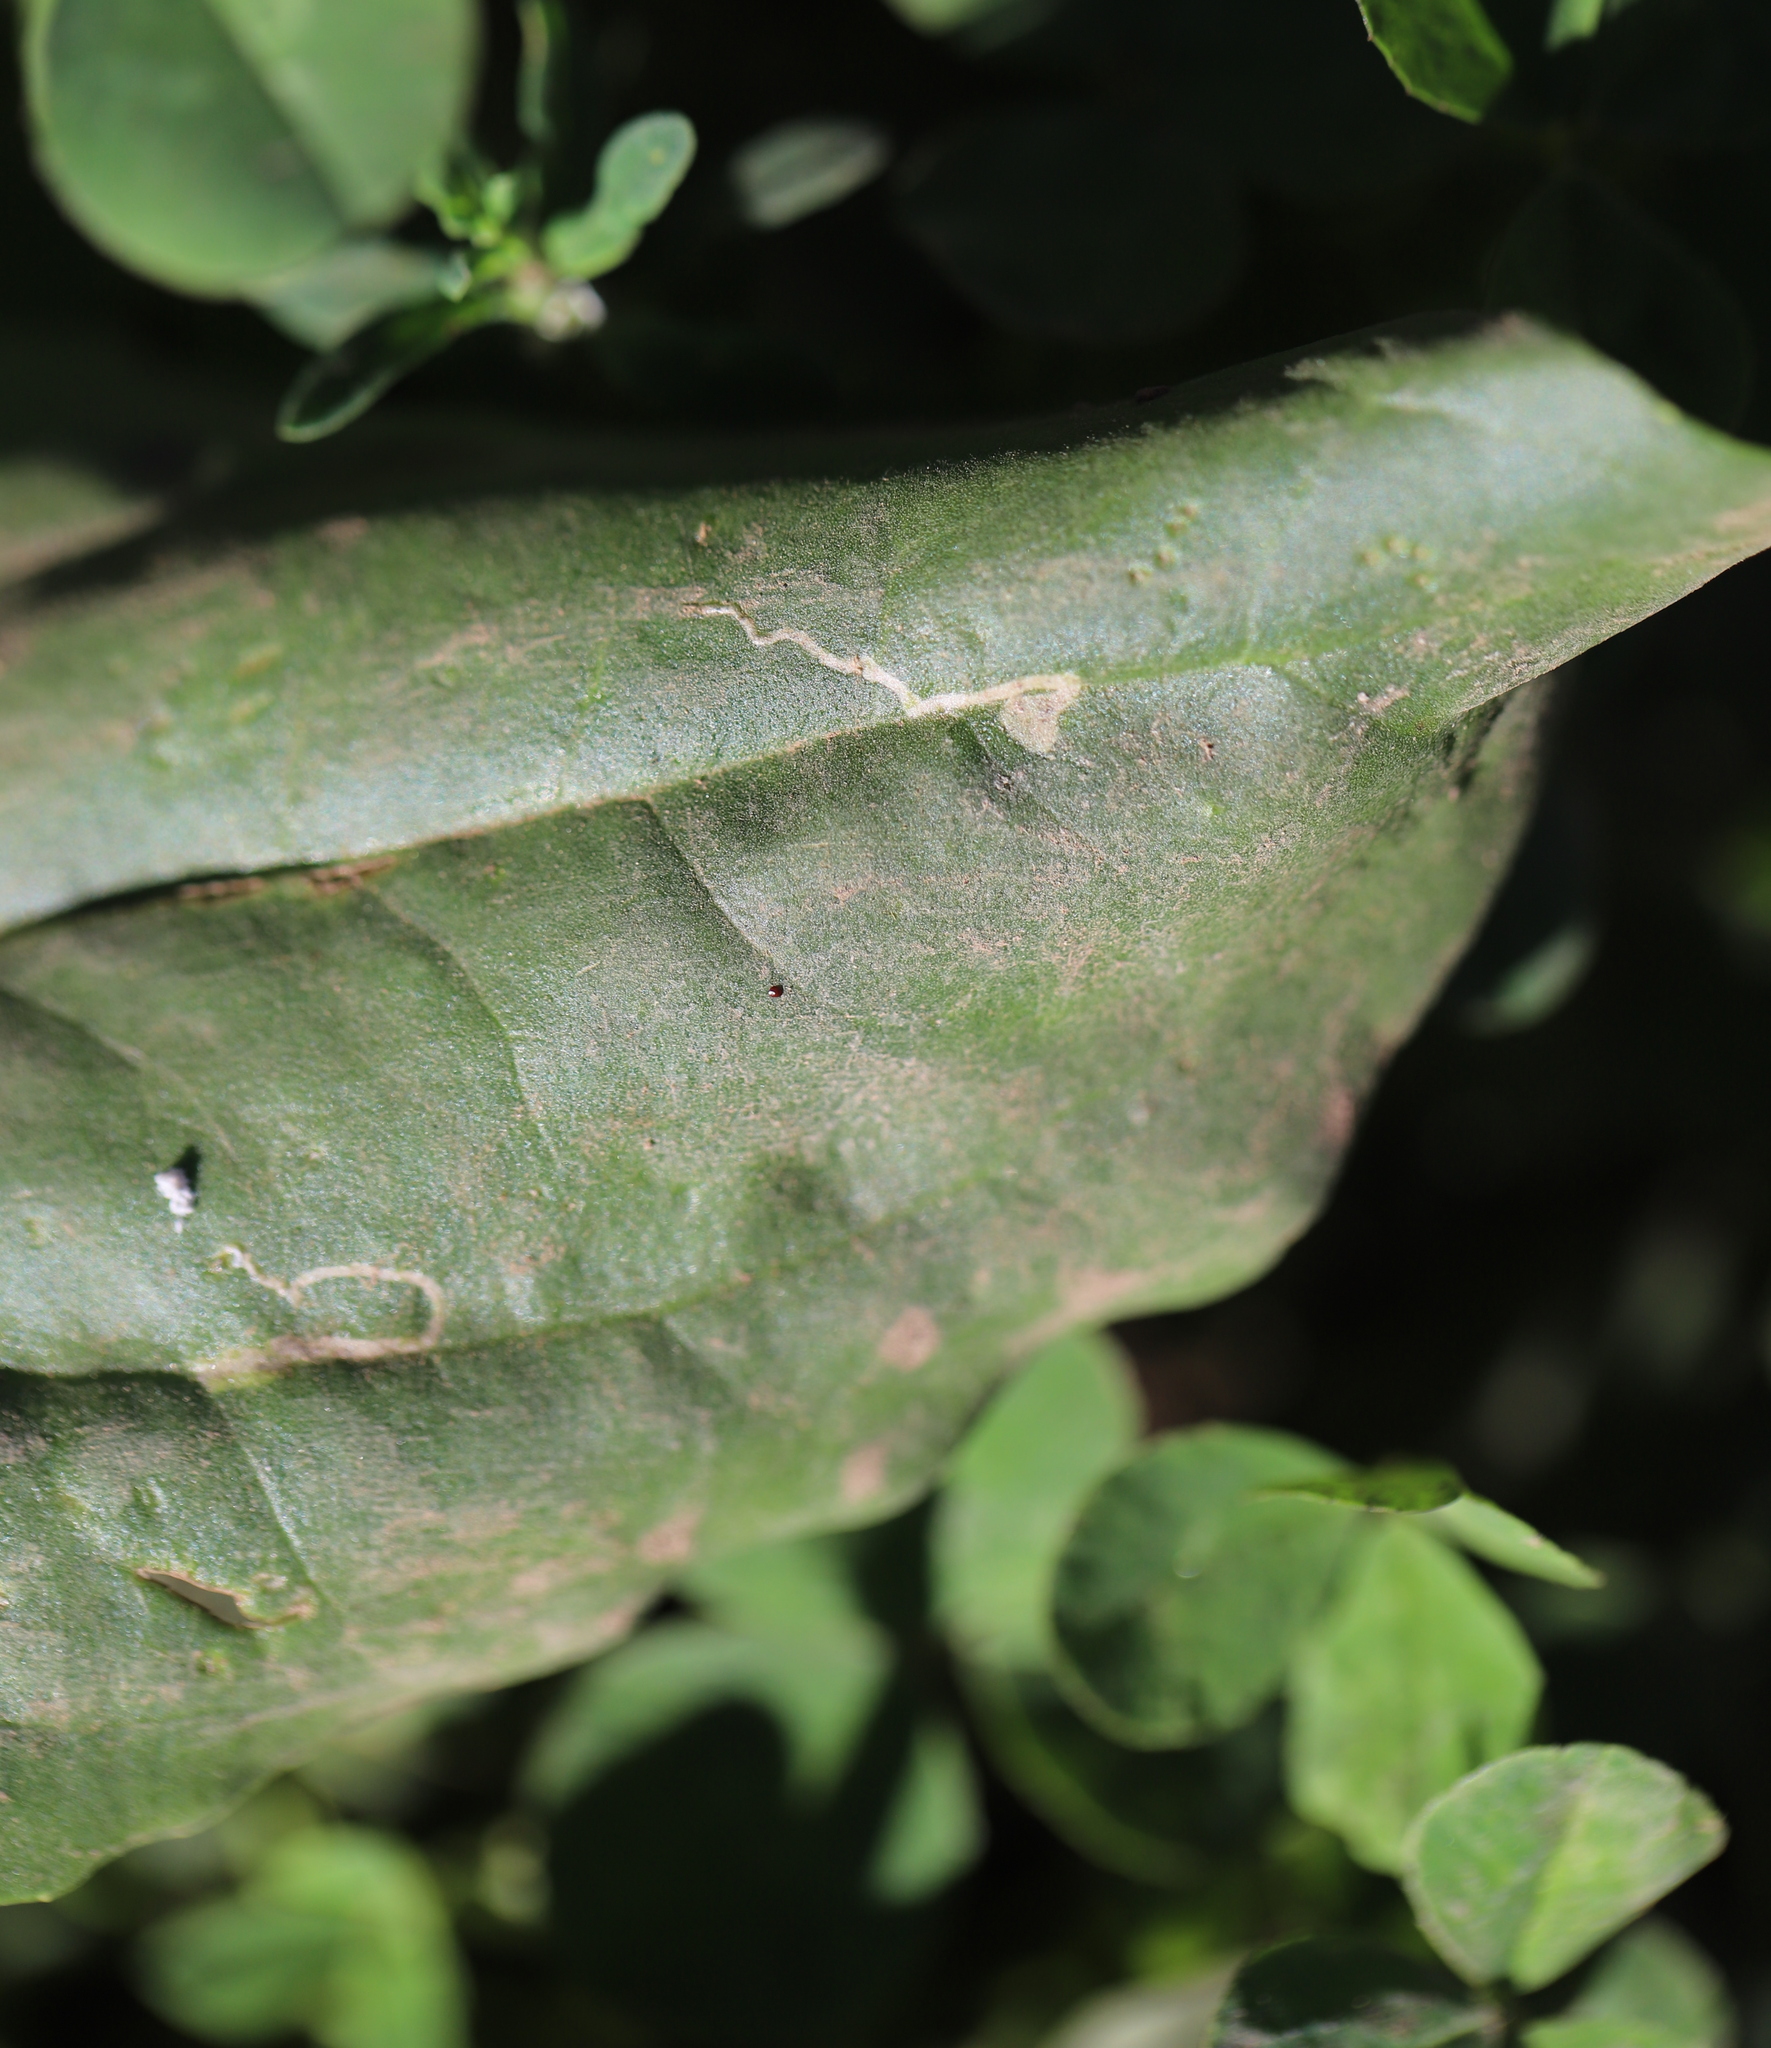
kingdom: Animalia
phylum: Arthropoda
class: Insecta
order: Diptera
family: Agromyzidae
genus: Phytomyza
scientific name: Phytomyza plantaginis
